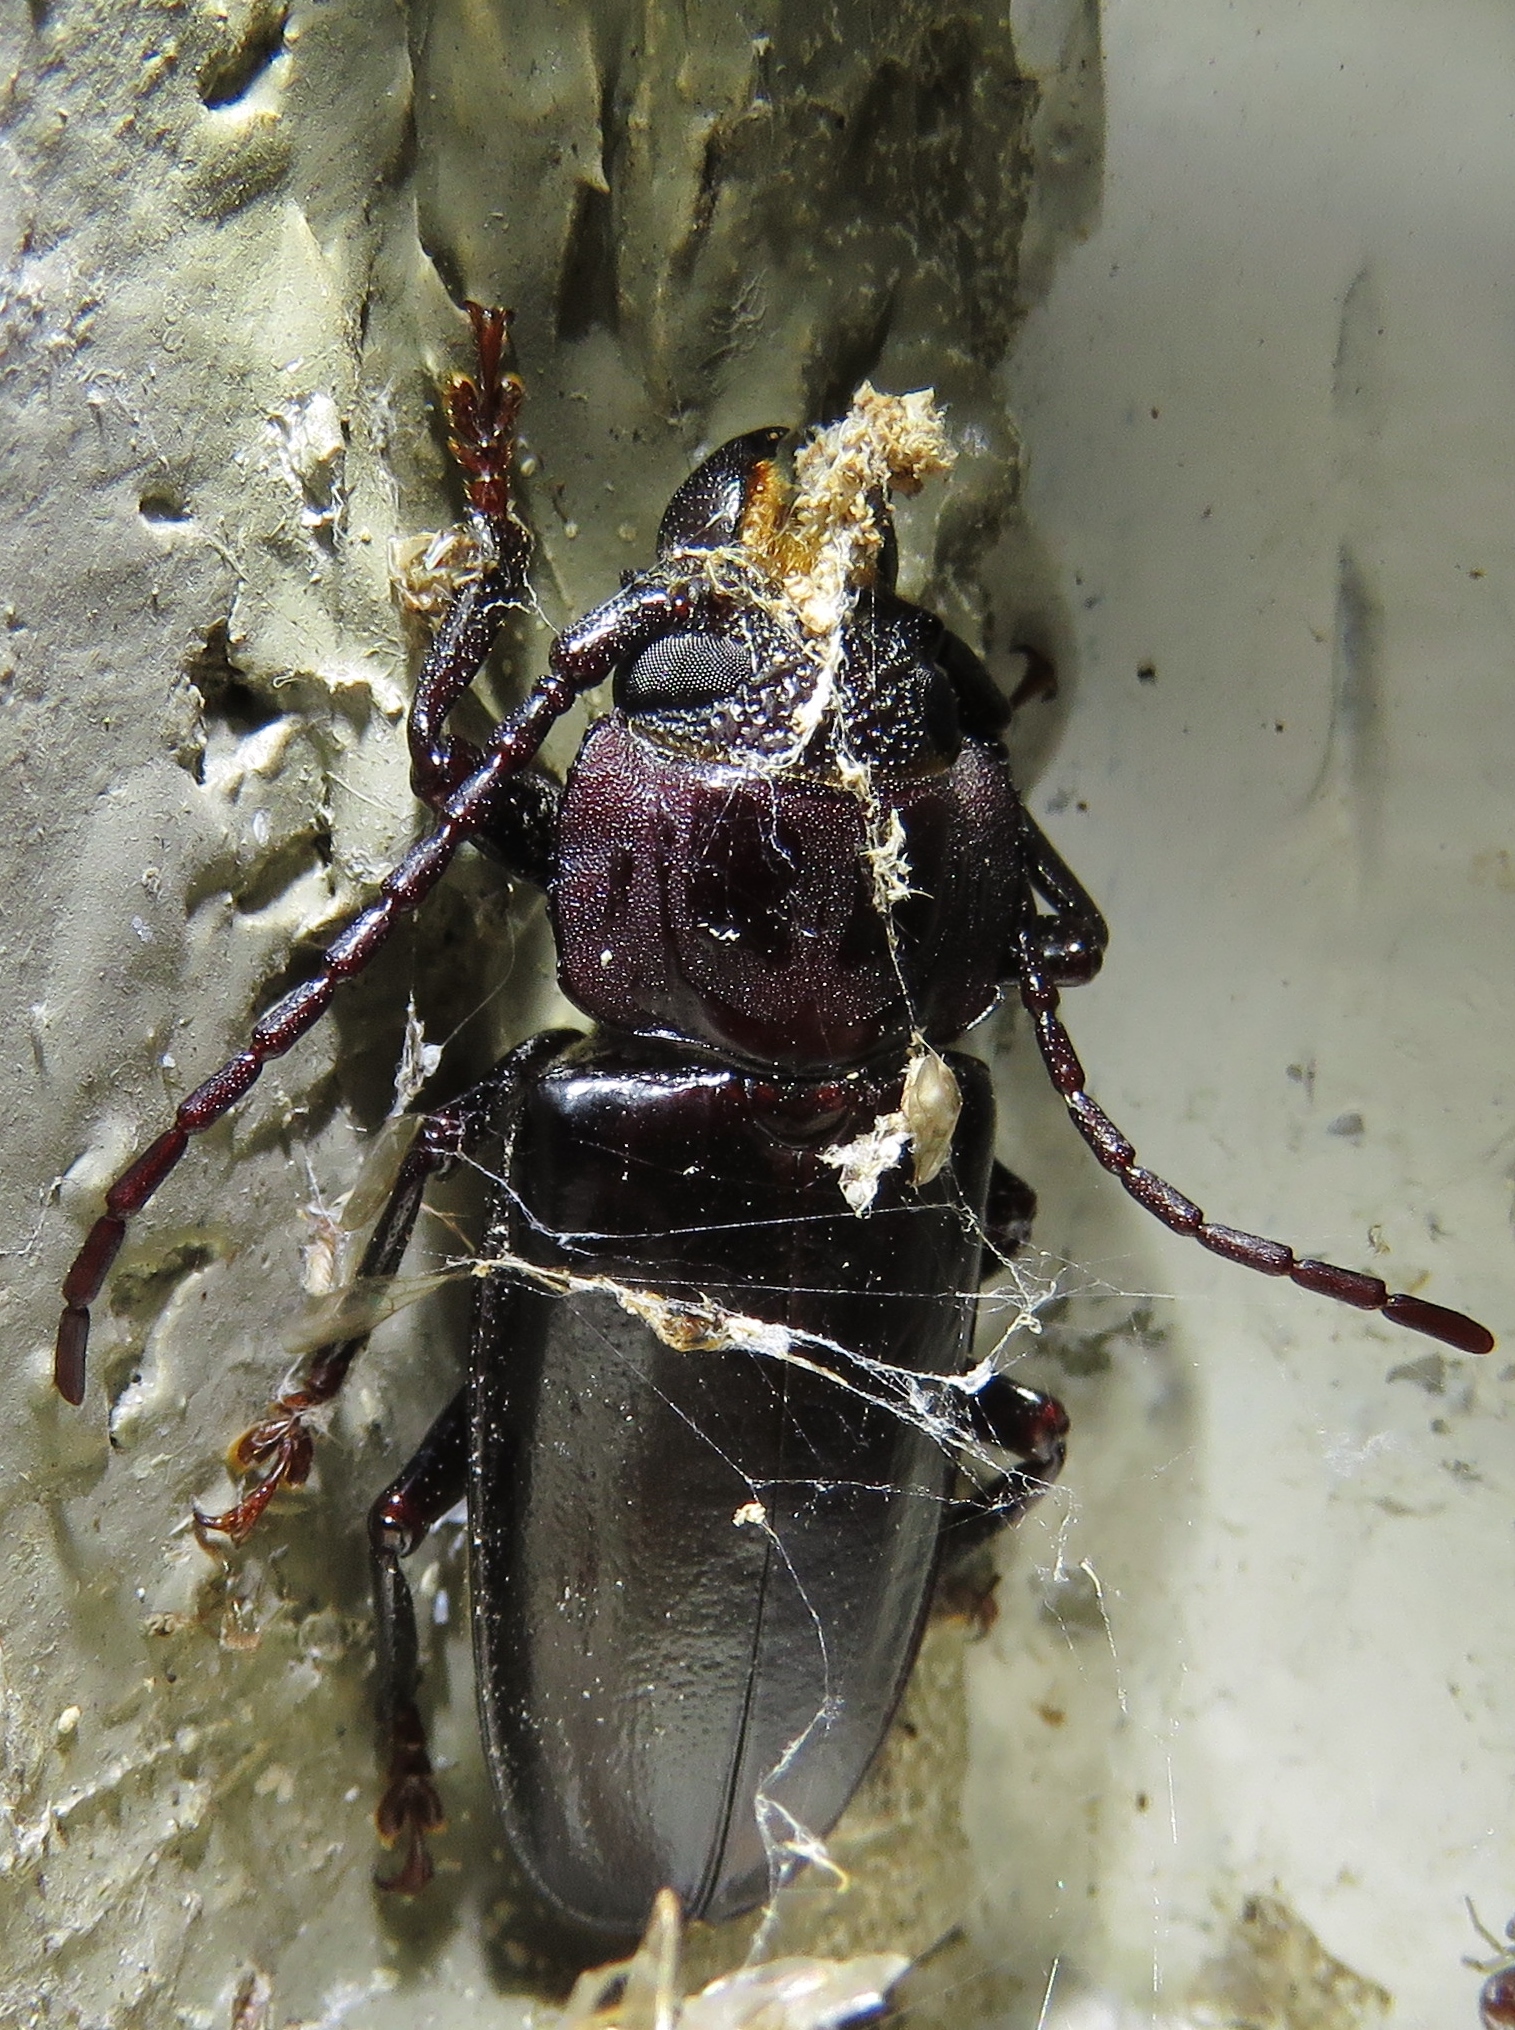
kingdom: Animalia
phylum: Arthropoda
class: Insecta
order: Coleoptera
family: Cerambycidae
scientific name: Cerambycidae
